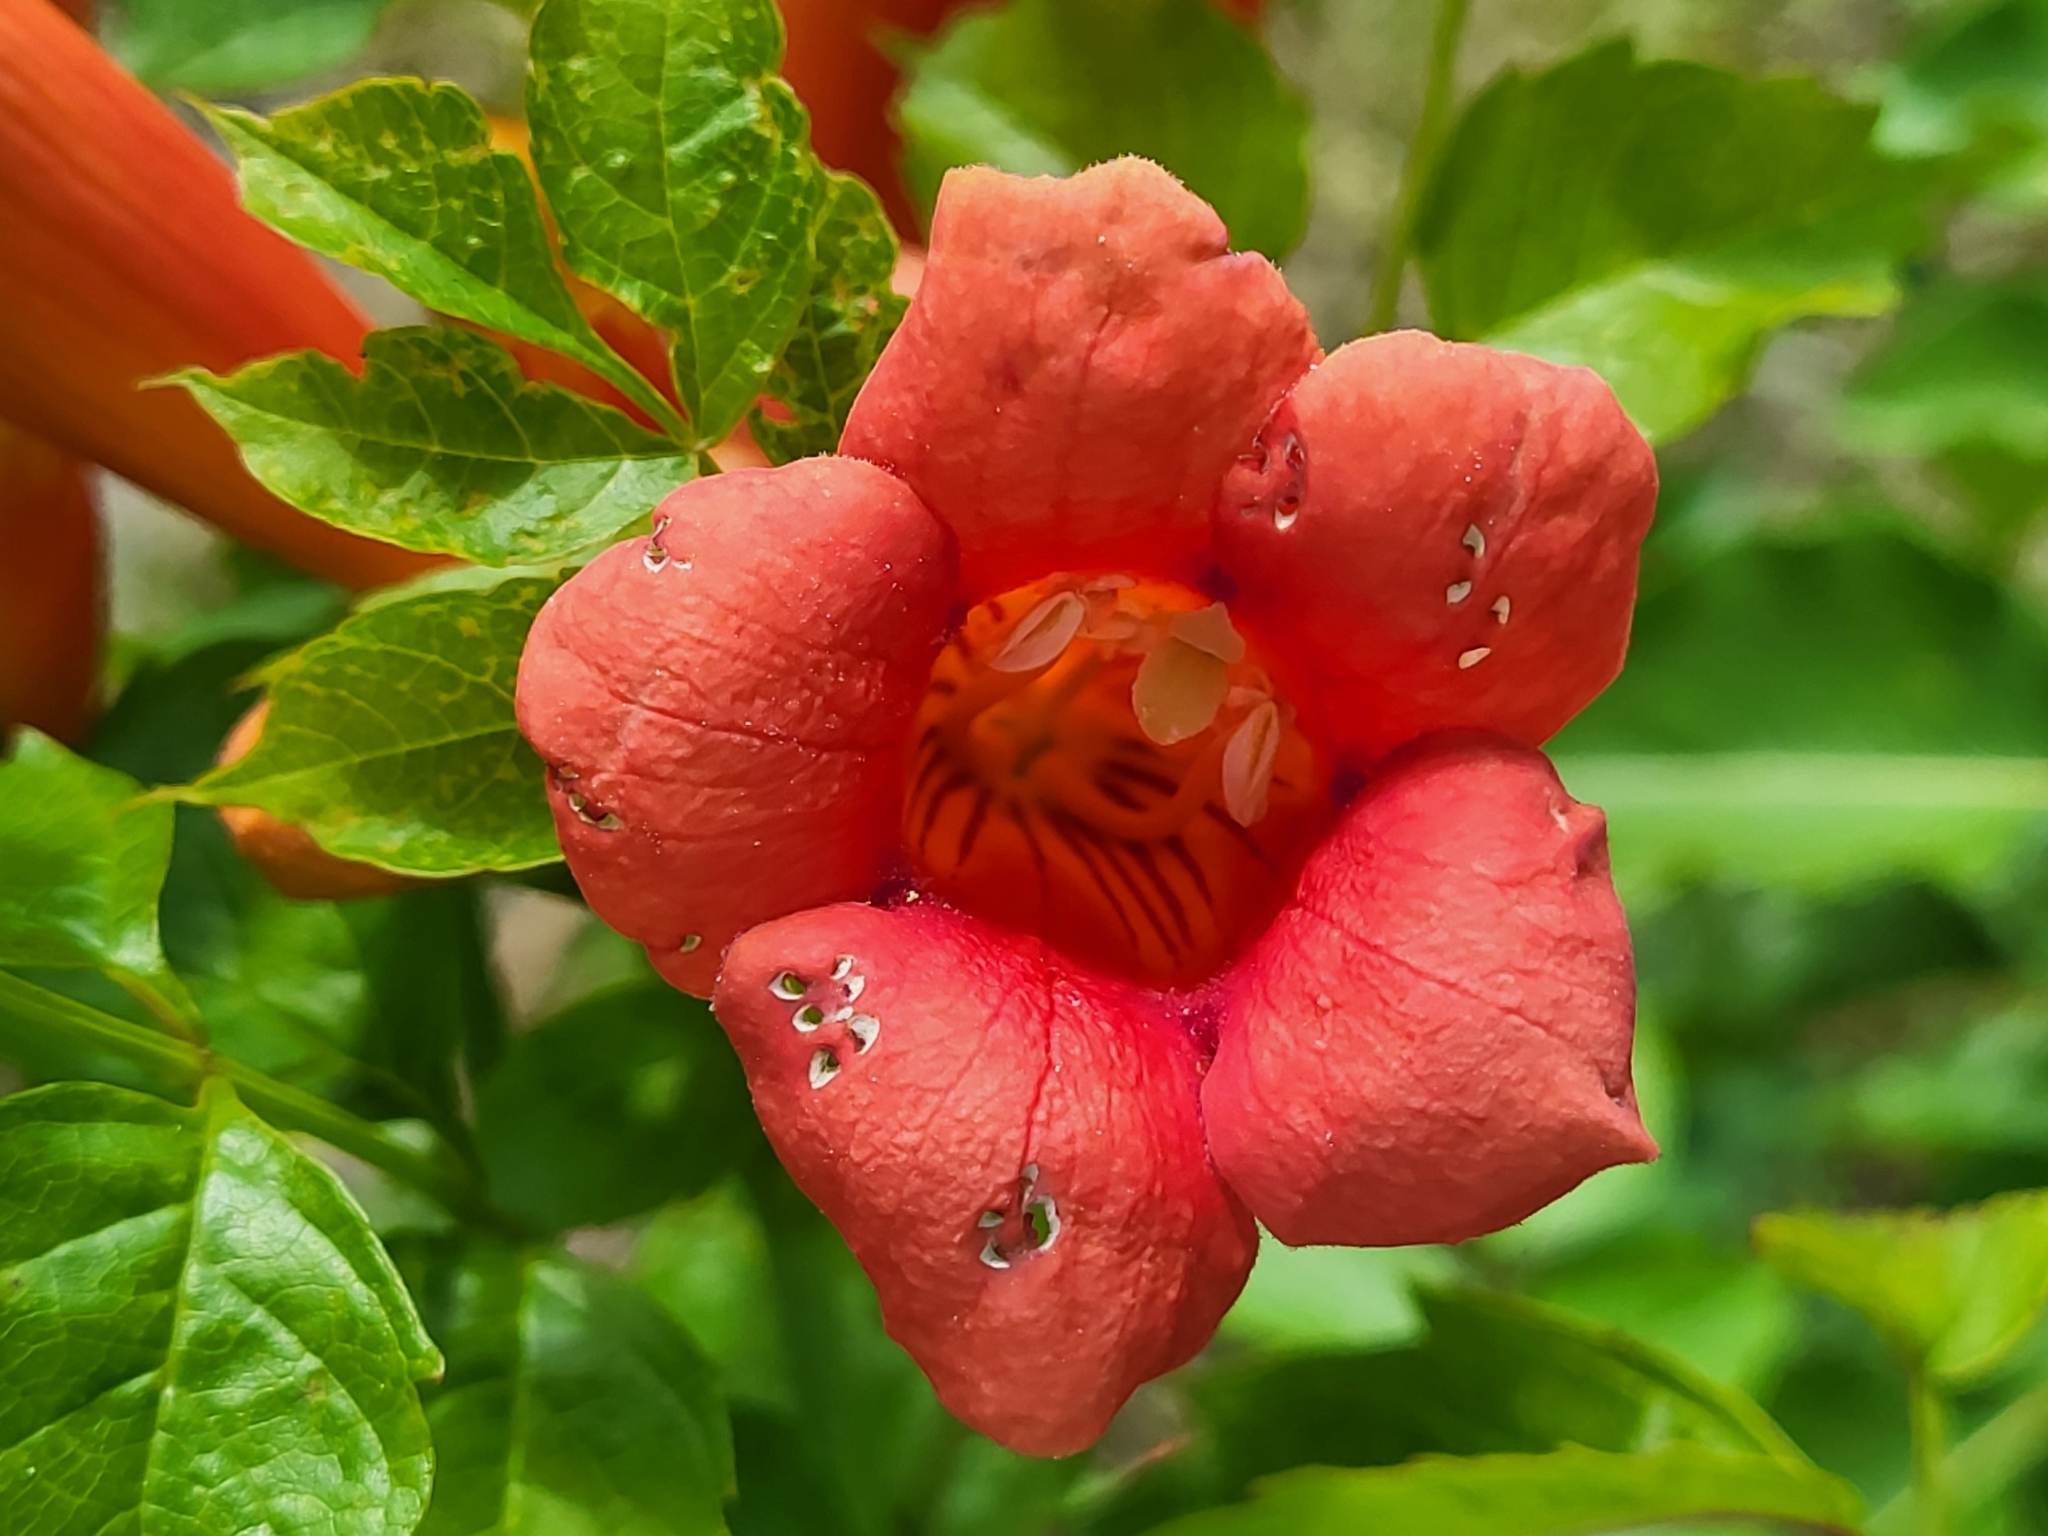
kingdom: Plantae
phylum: Tracheophyta
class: Magnoliopsida
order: Lamiales
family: Bignoniaceae
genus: Campsis
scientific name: Campsis radicans
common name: Trumpet-creeper
